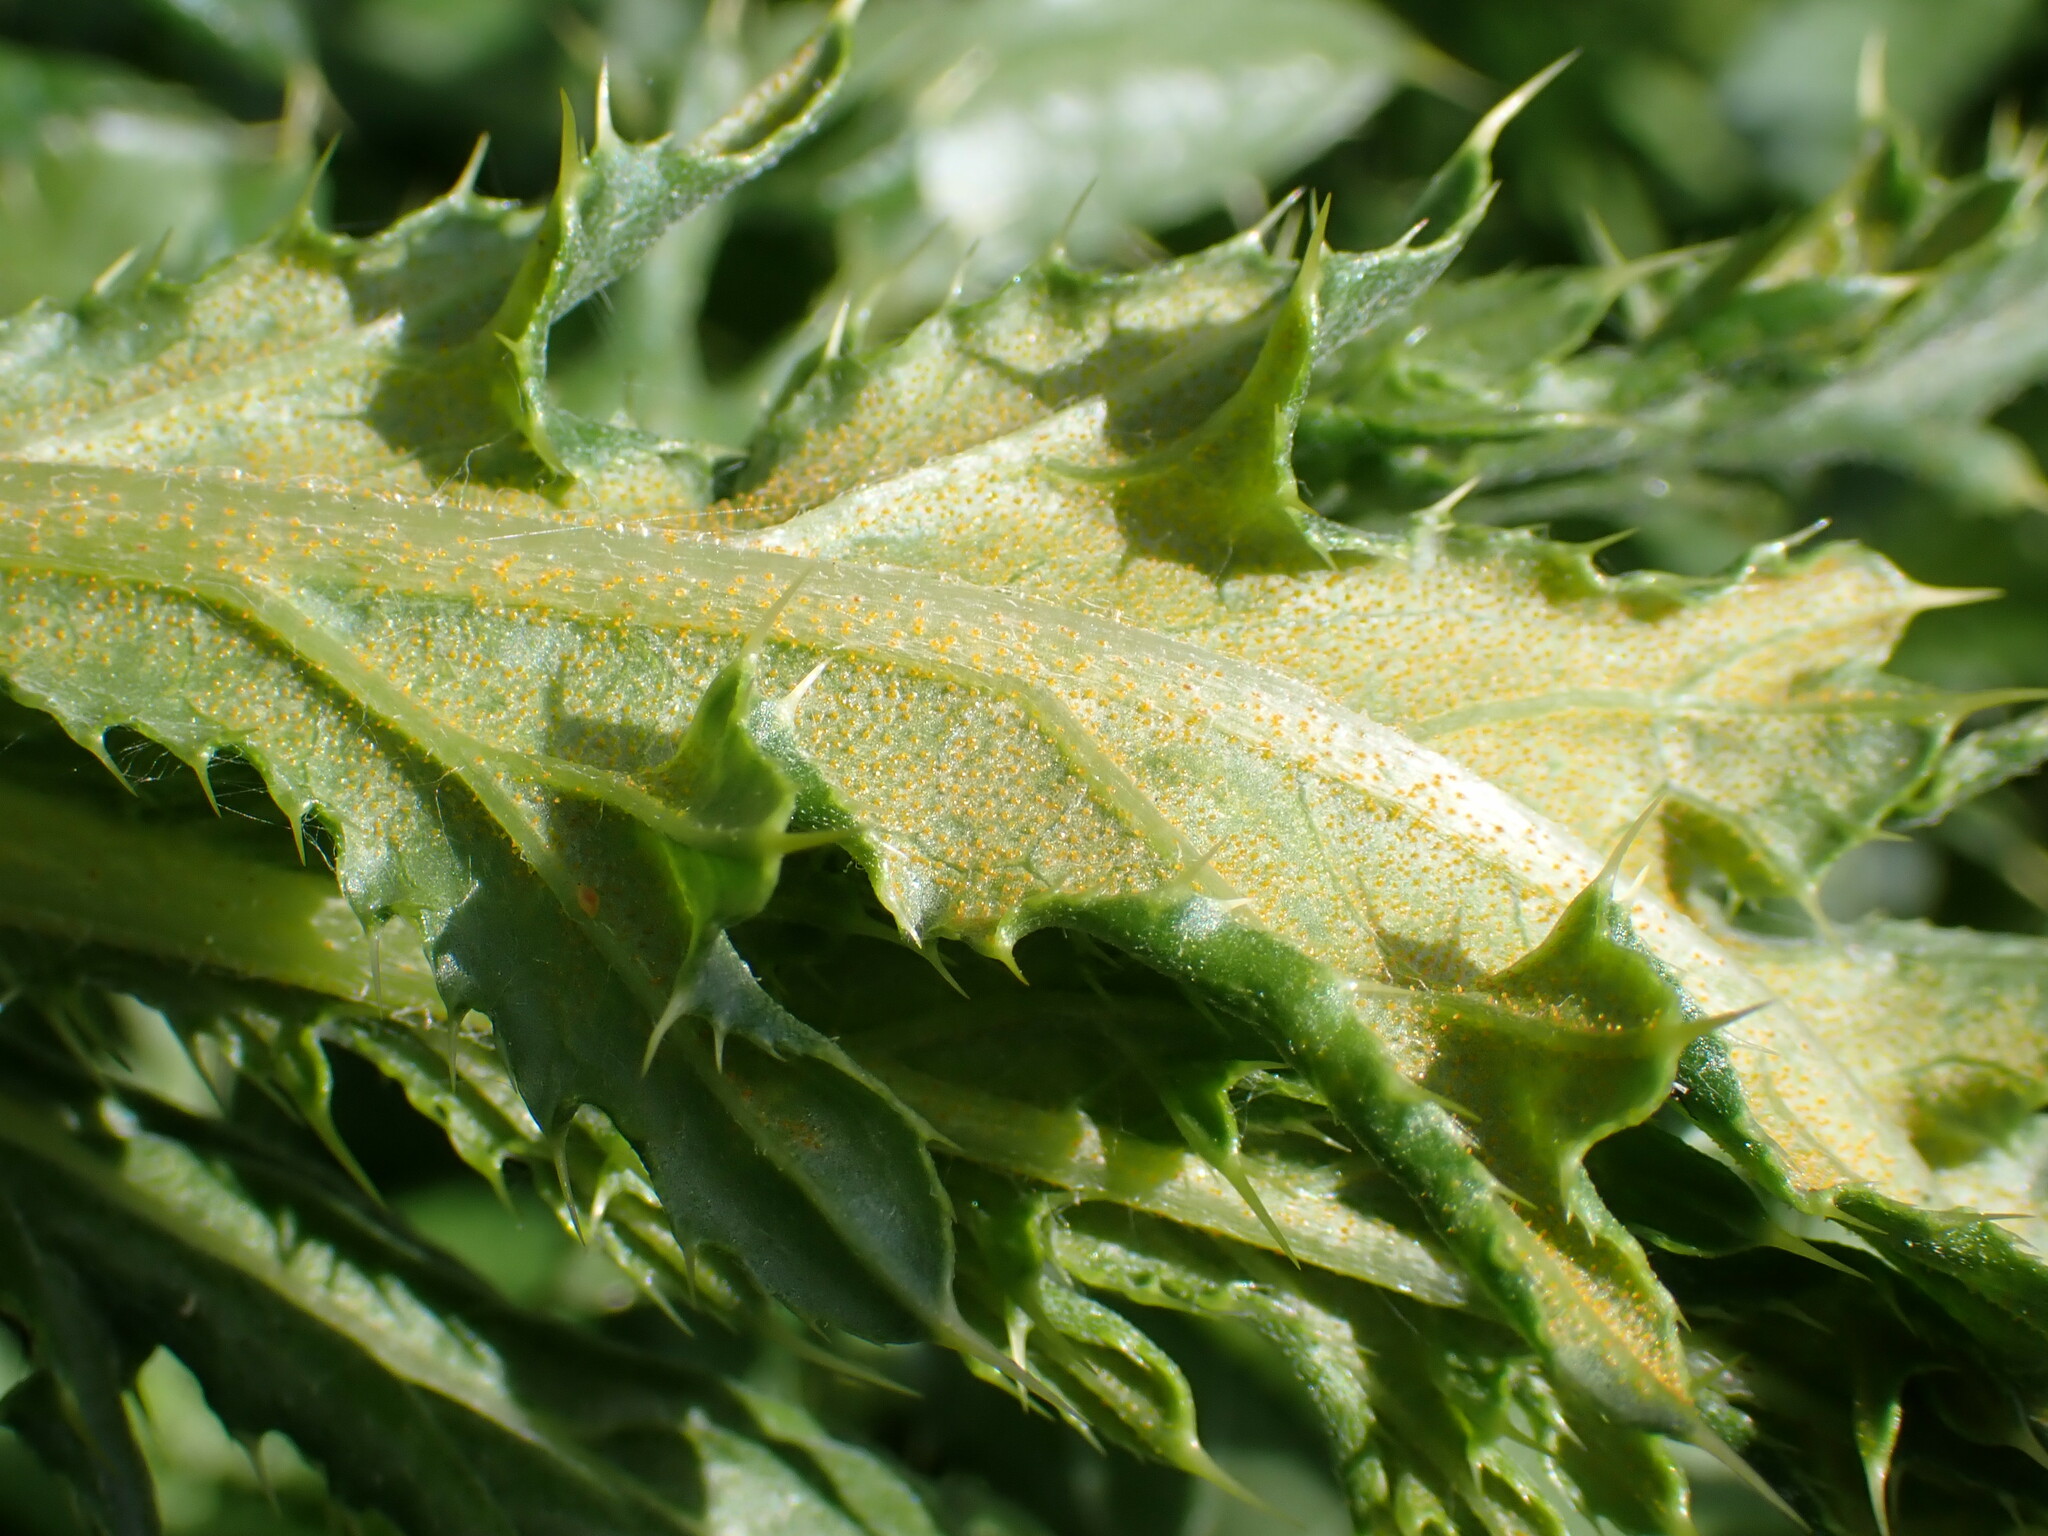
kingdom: Fungi
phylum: Basidiomycota
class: Pucciniomycetes
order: Pucciniales
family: Pucciniaceae
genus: Puccinia
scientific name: Puccinia suaveolens
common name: Thistle rust
